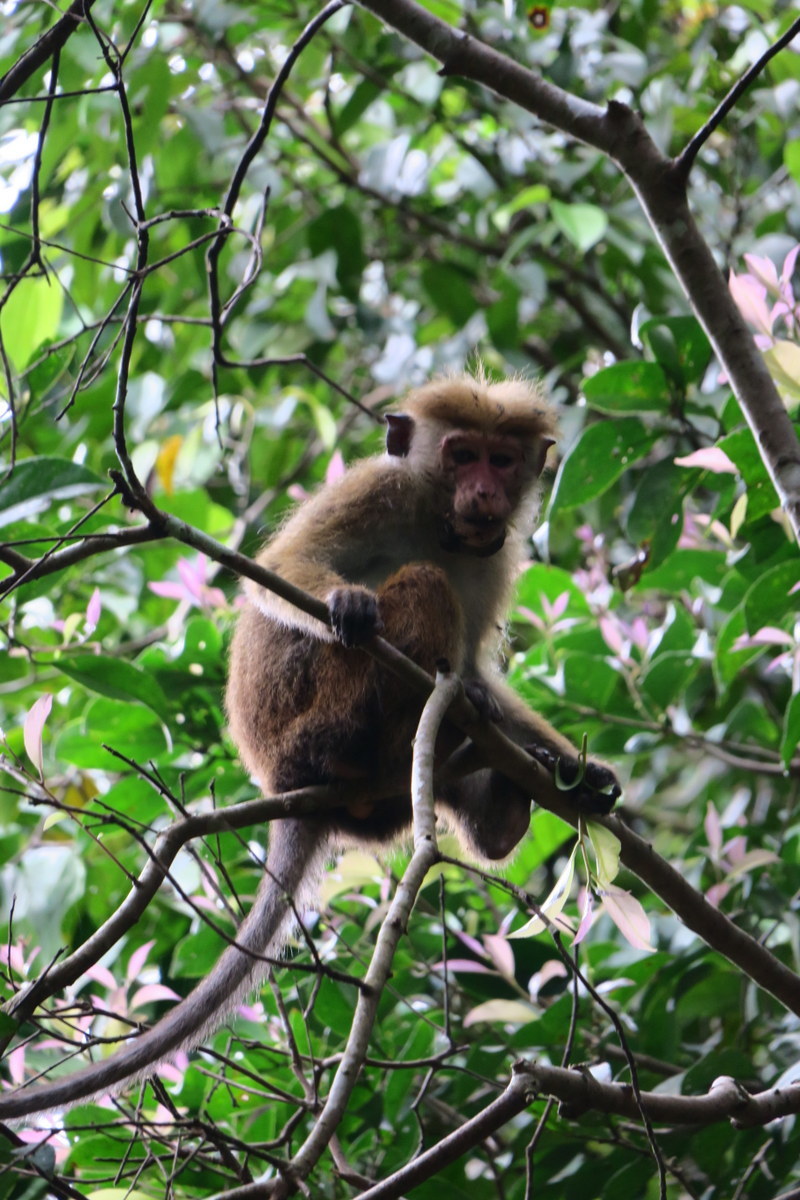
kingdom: Animalia
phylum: Chordata
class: Mammalia
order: Primates
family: Cercopithecidae
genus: Macaca
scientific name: Macaca sinica
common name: Toque macaque
